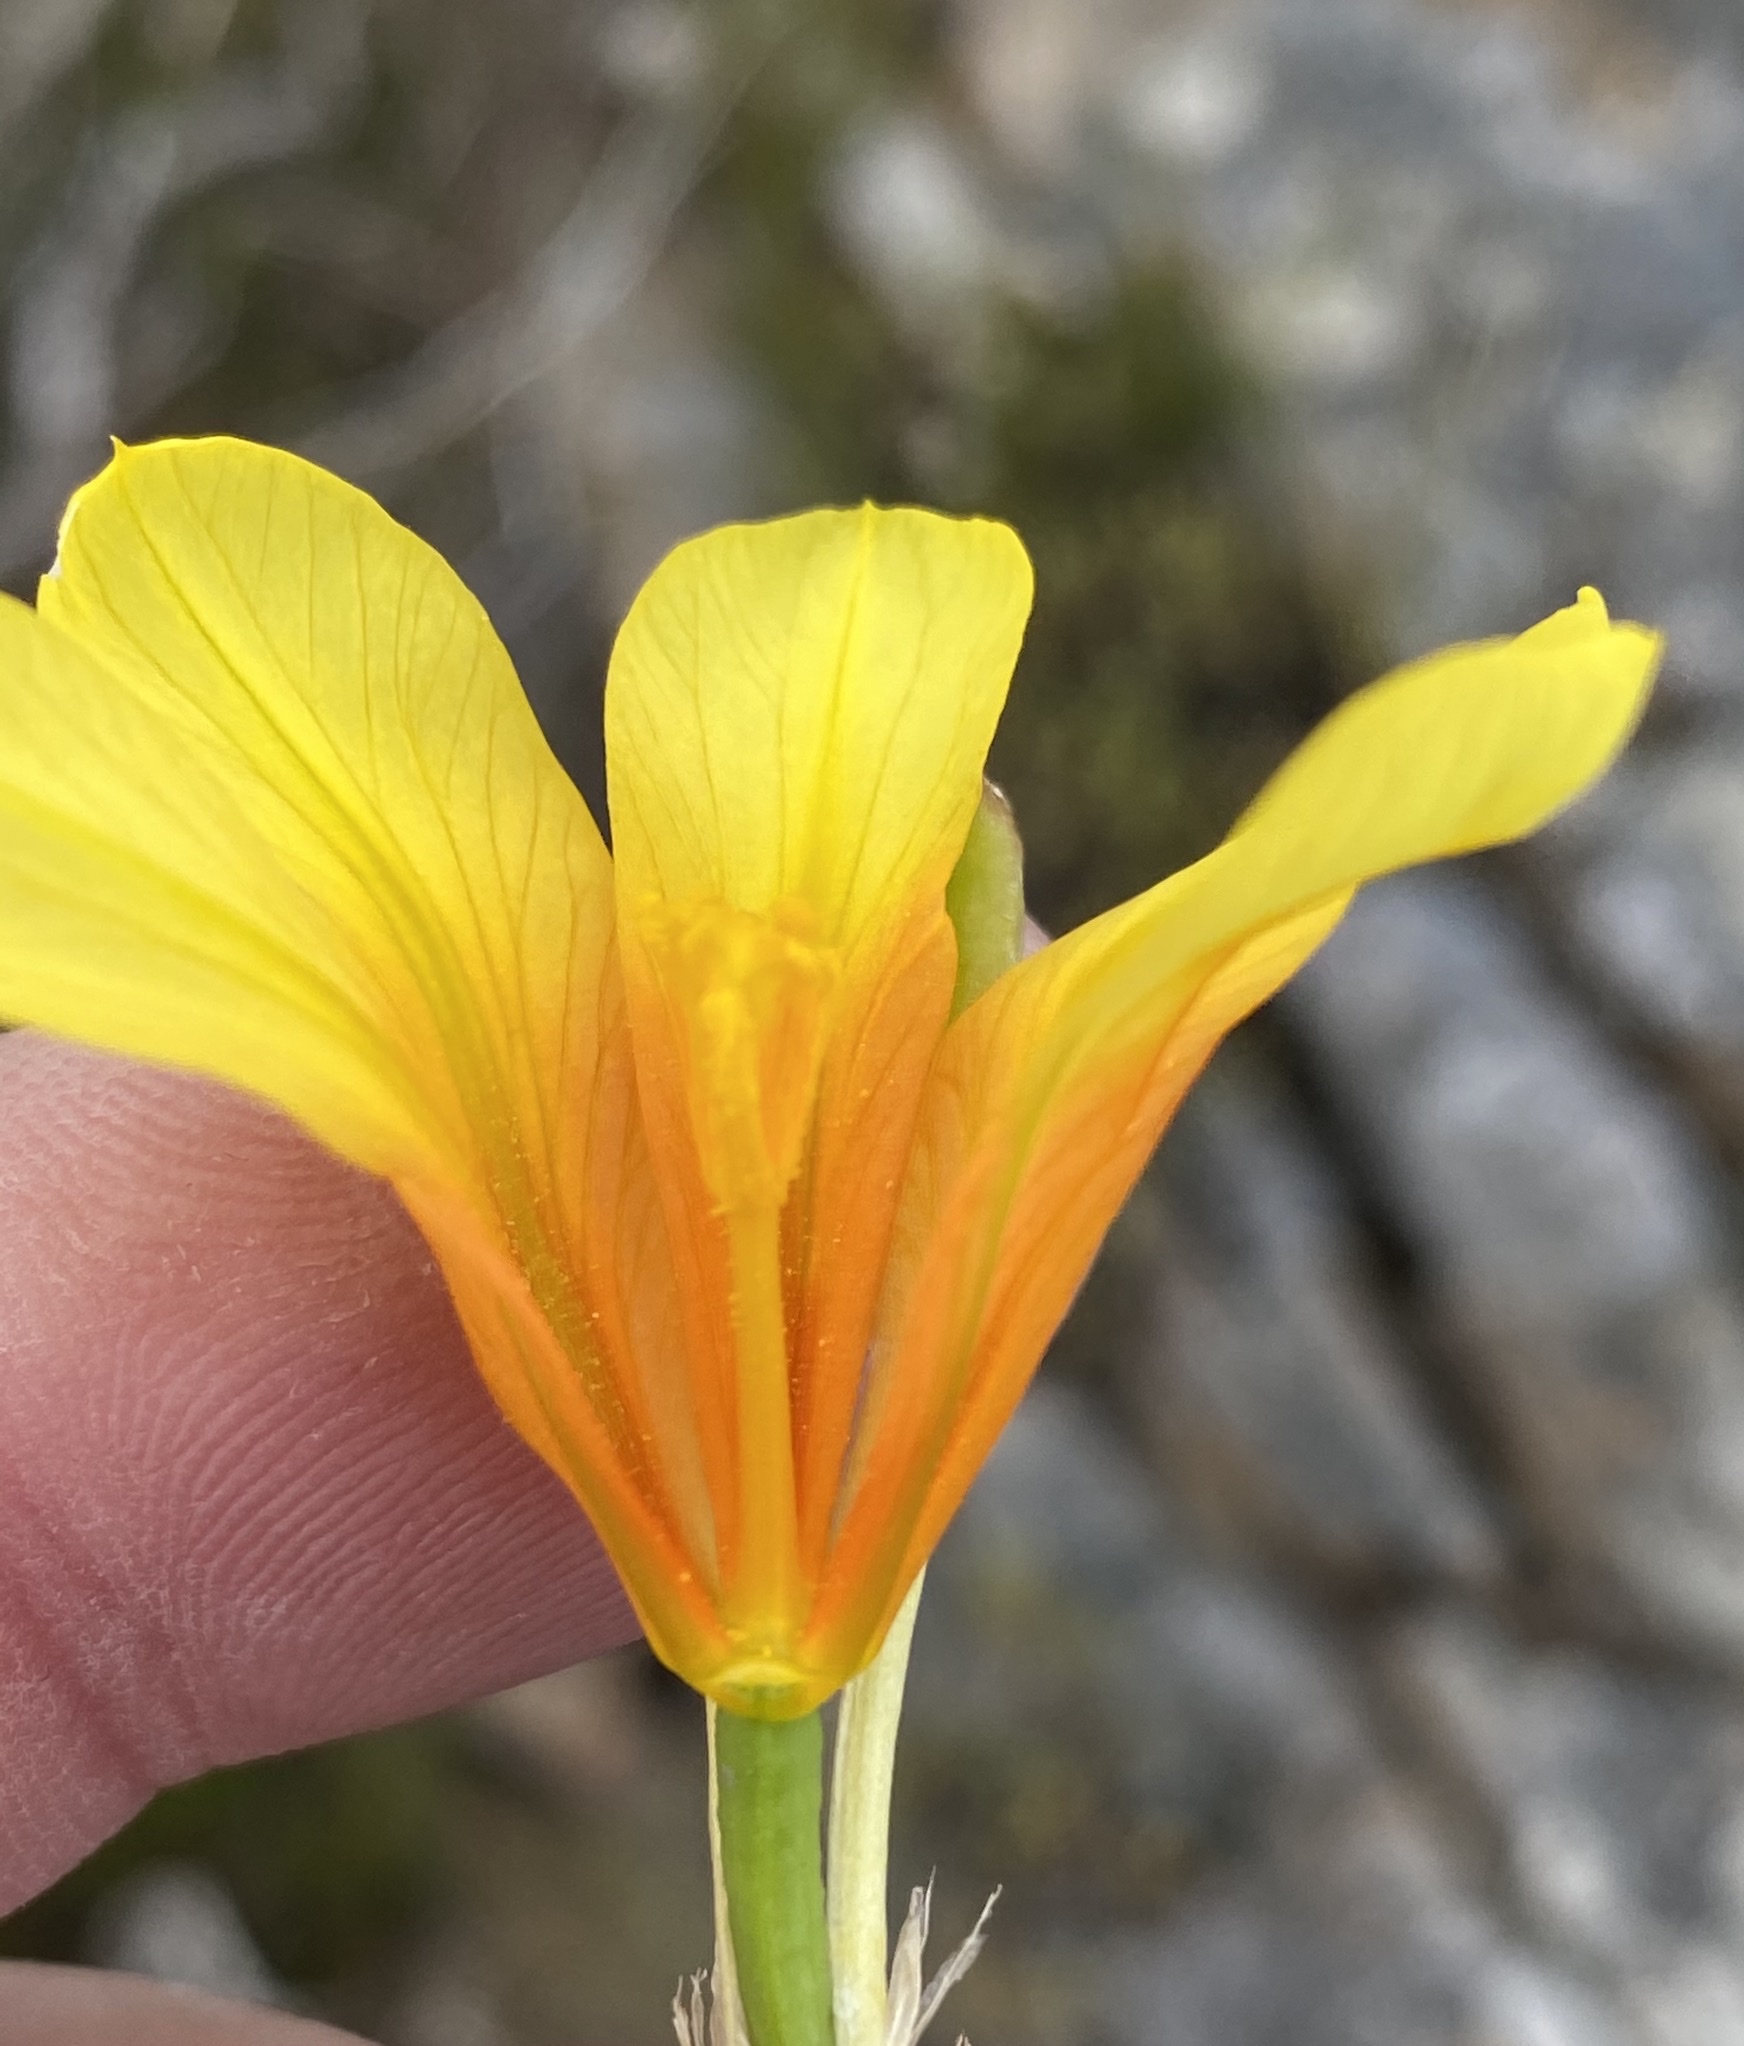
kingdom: Plantae
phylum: Tracheophyta
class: Liliopsida
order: Asparagales
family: Iridaceae
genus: Moraea
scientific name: Moraea ochroleuca
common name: Red tulp
